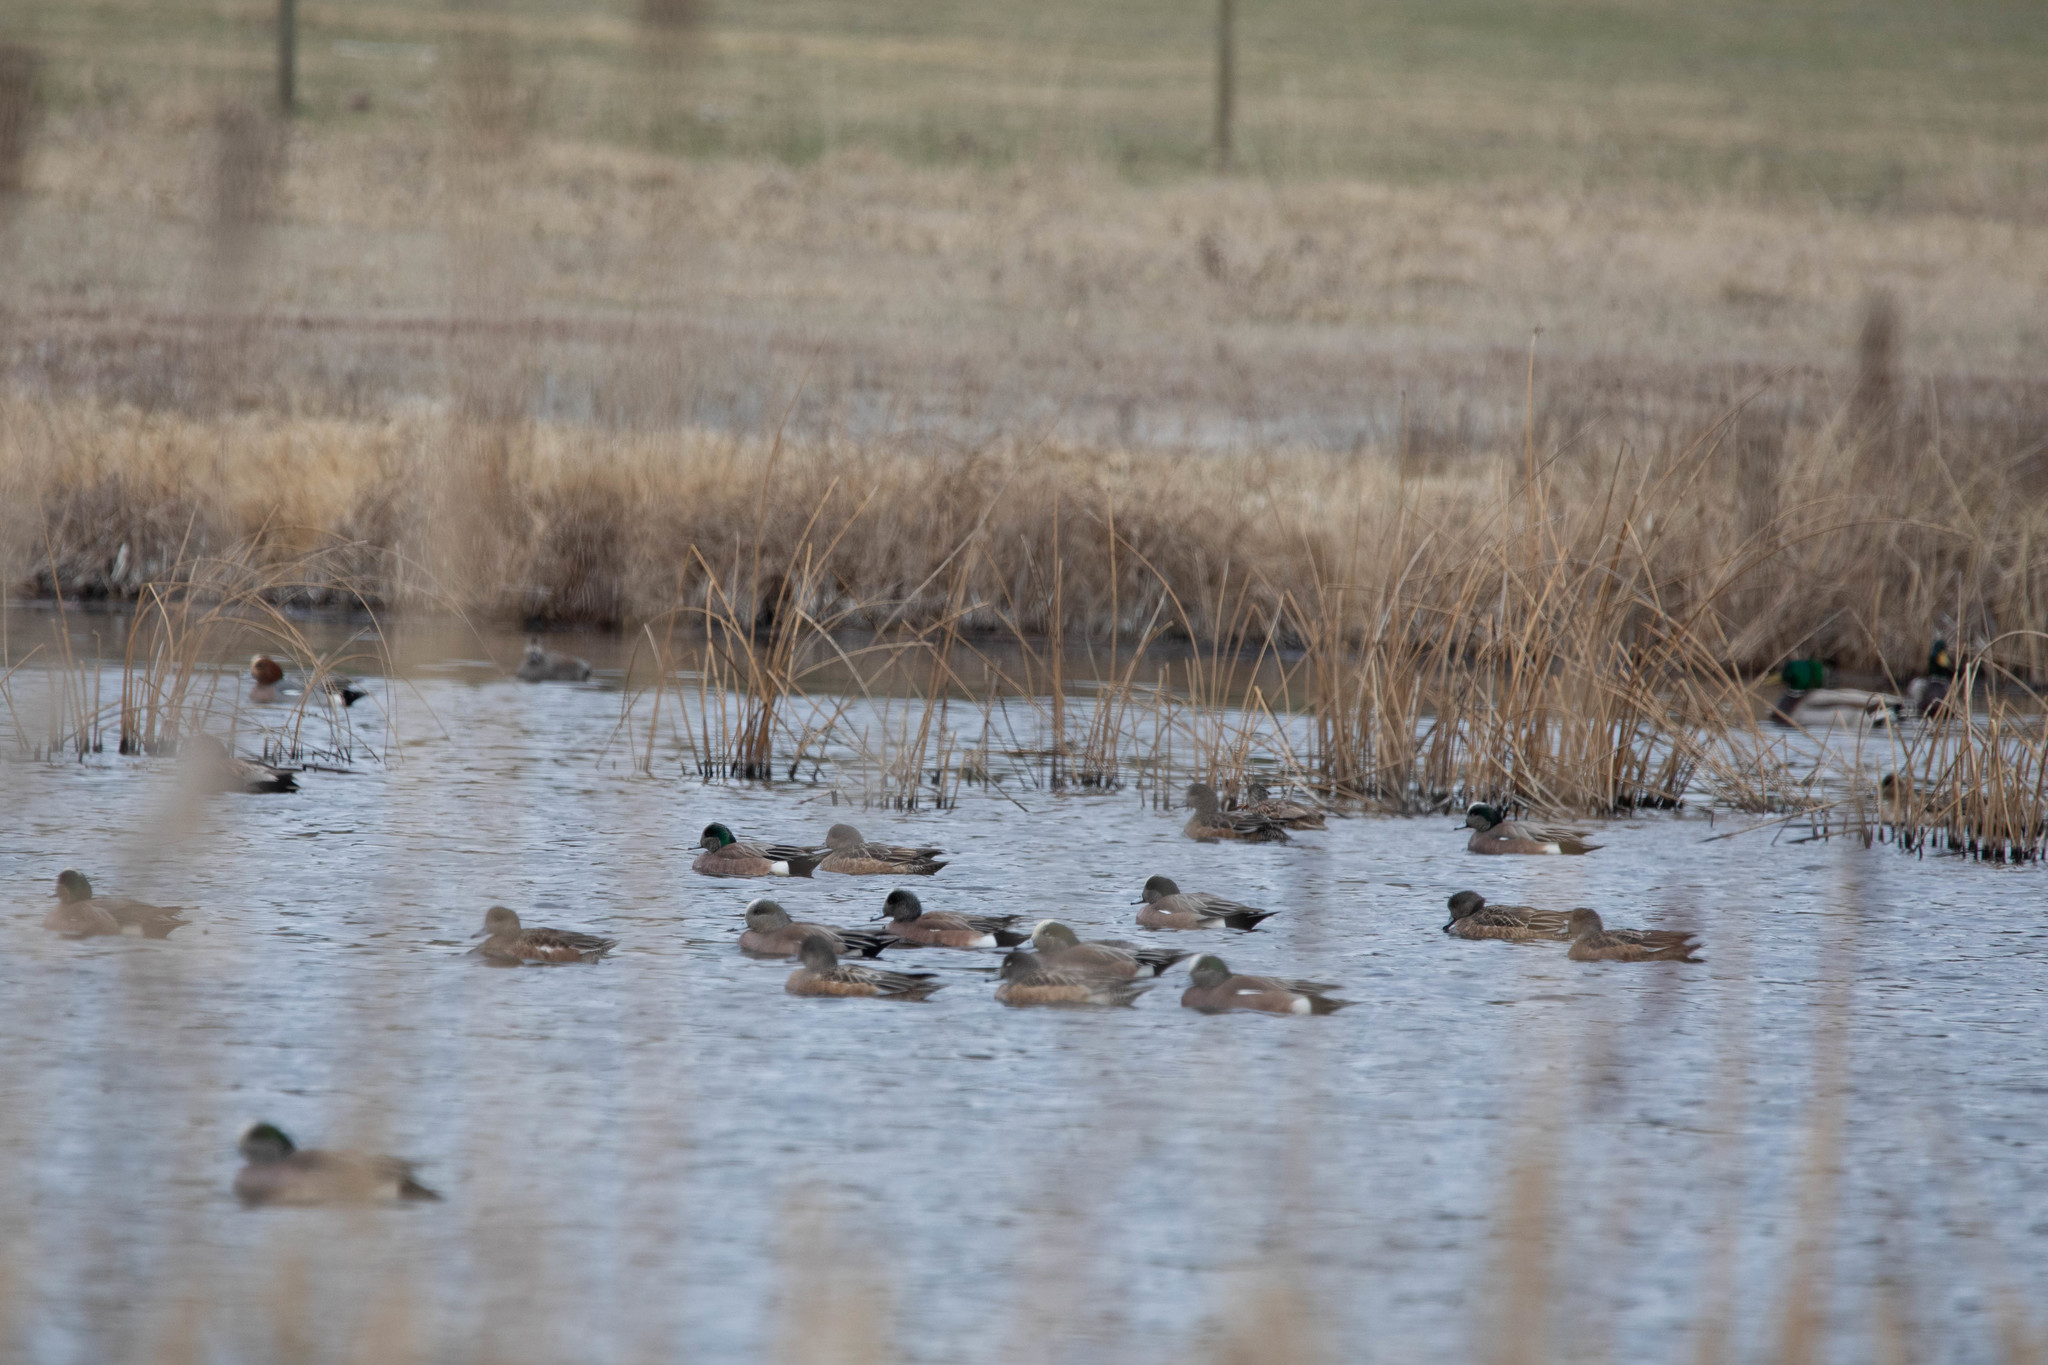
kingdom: Animalia
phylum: Chordata
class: Aves
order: Anseriformes
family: Anatidae
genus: Mareca
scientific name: Mareca americana
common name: American wigeon
